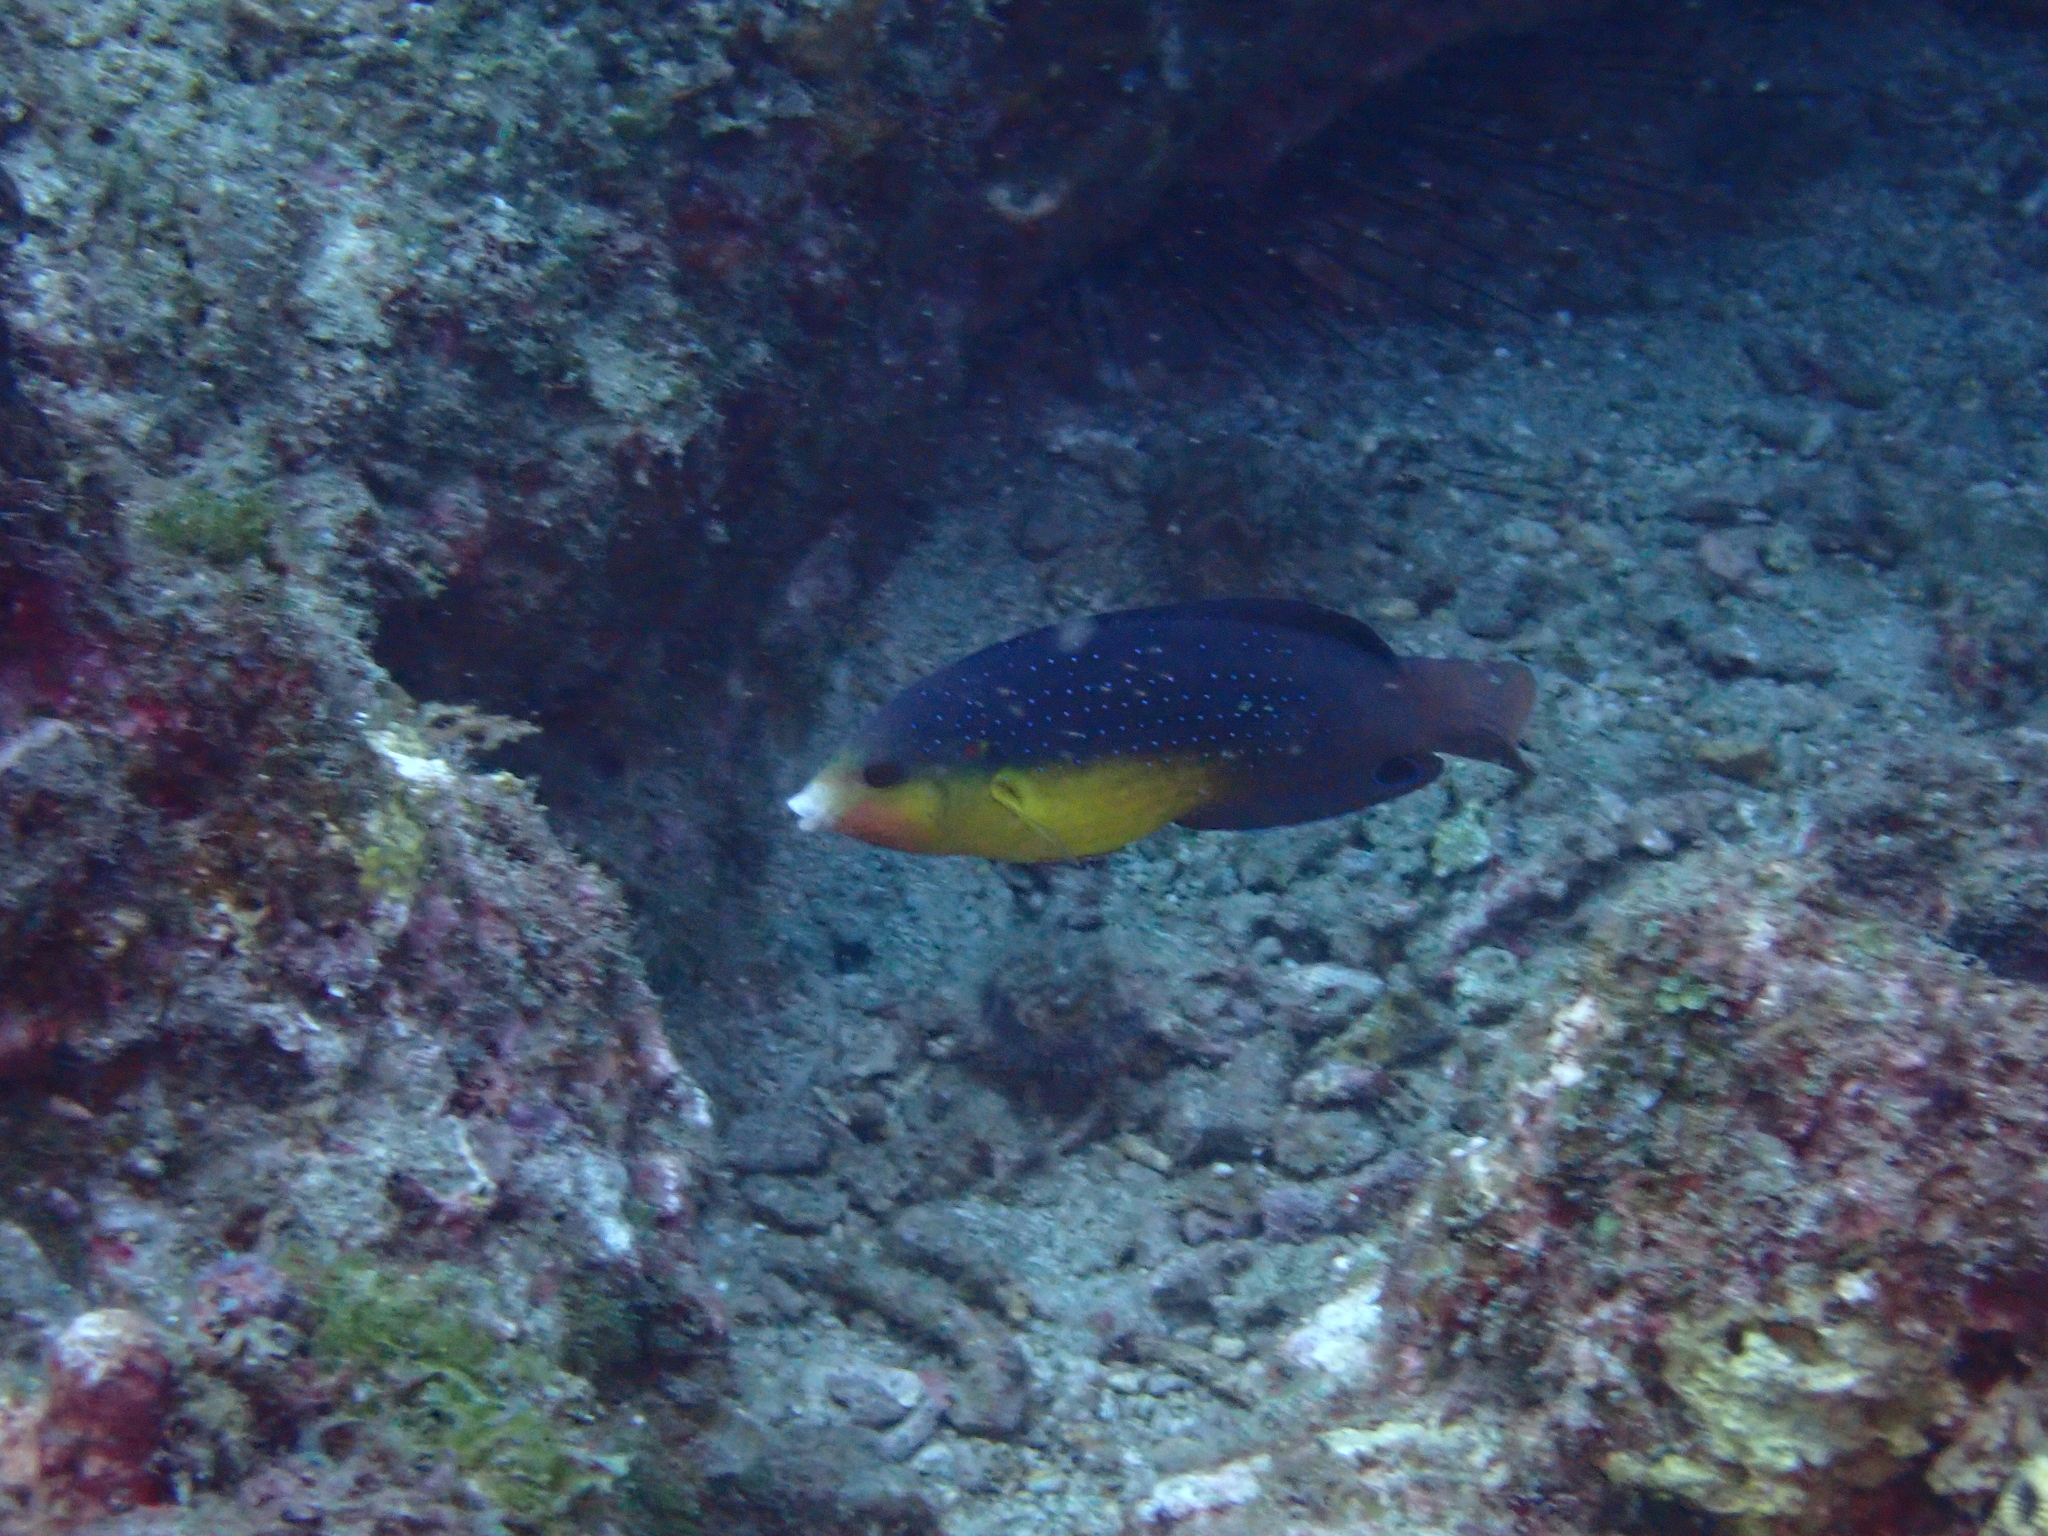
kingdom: Animalia
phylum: Chordata
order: Perciformes
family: Labridae
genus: Anampses
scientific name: Anampses twistii
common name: Yellowbreasted wrasse
